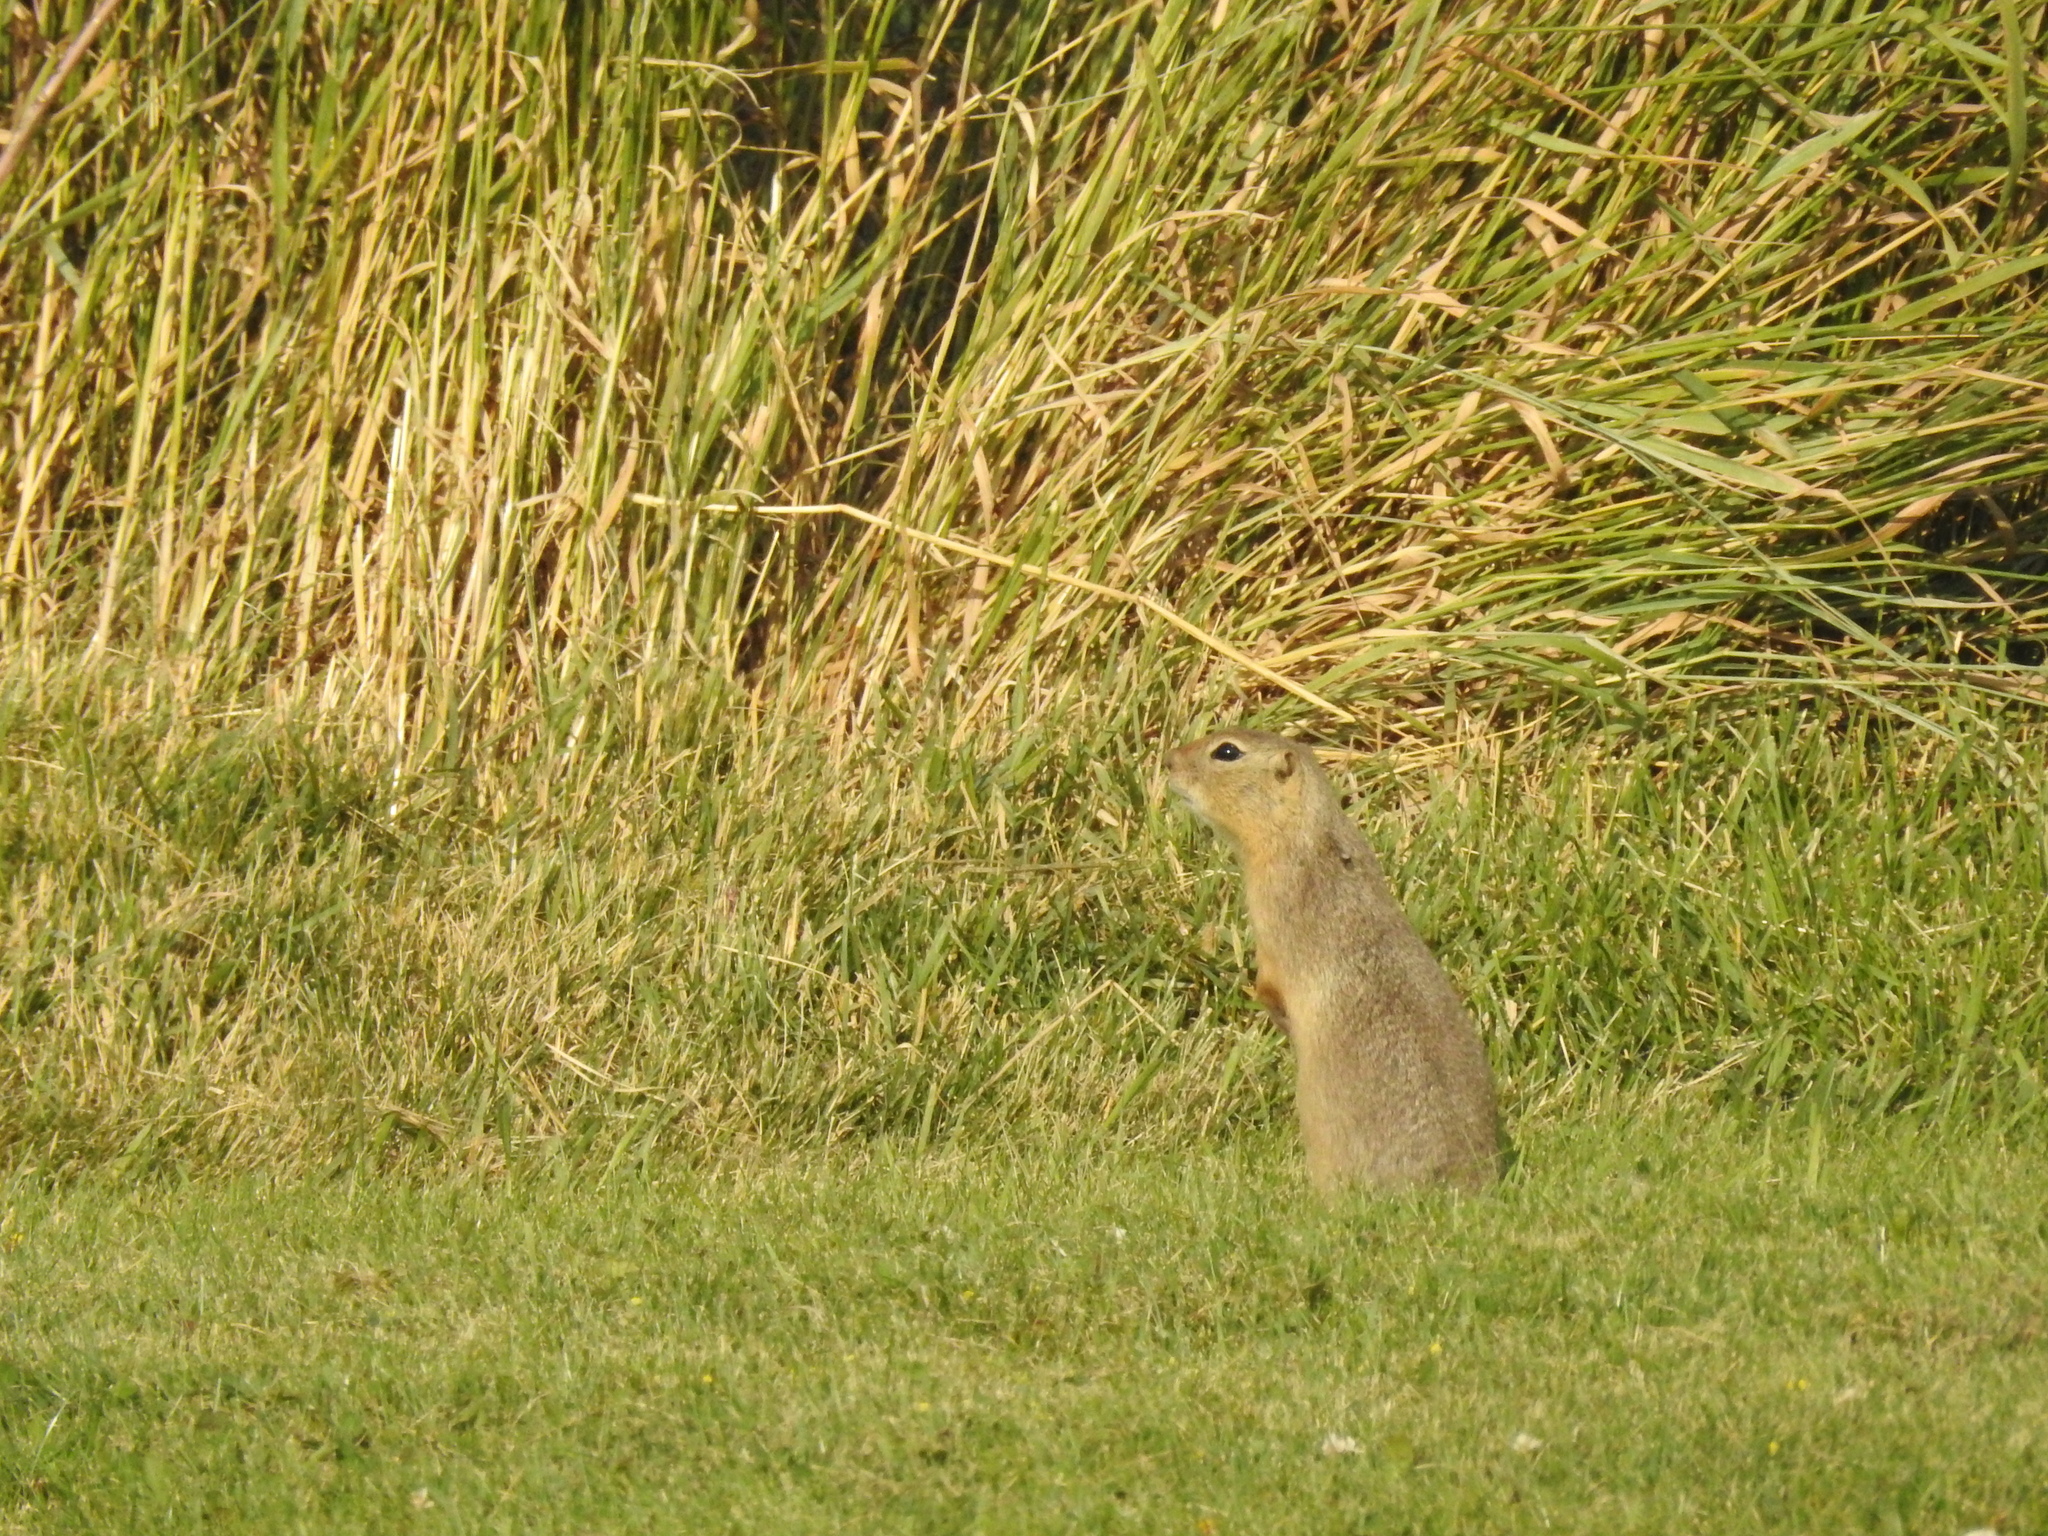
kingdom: Animalia
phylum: Chordata
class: Mammalia
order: Rodentia
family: Sciuridae
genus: Urocitellus
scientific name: Urocitellus richardsonii
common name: Richardson's ground squirrel
